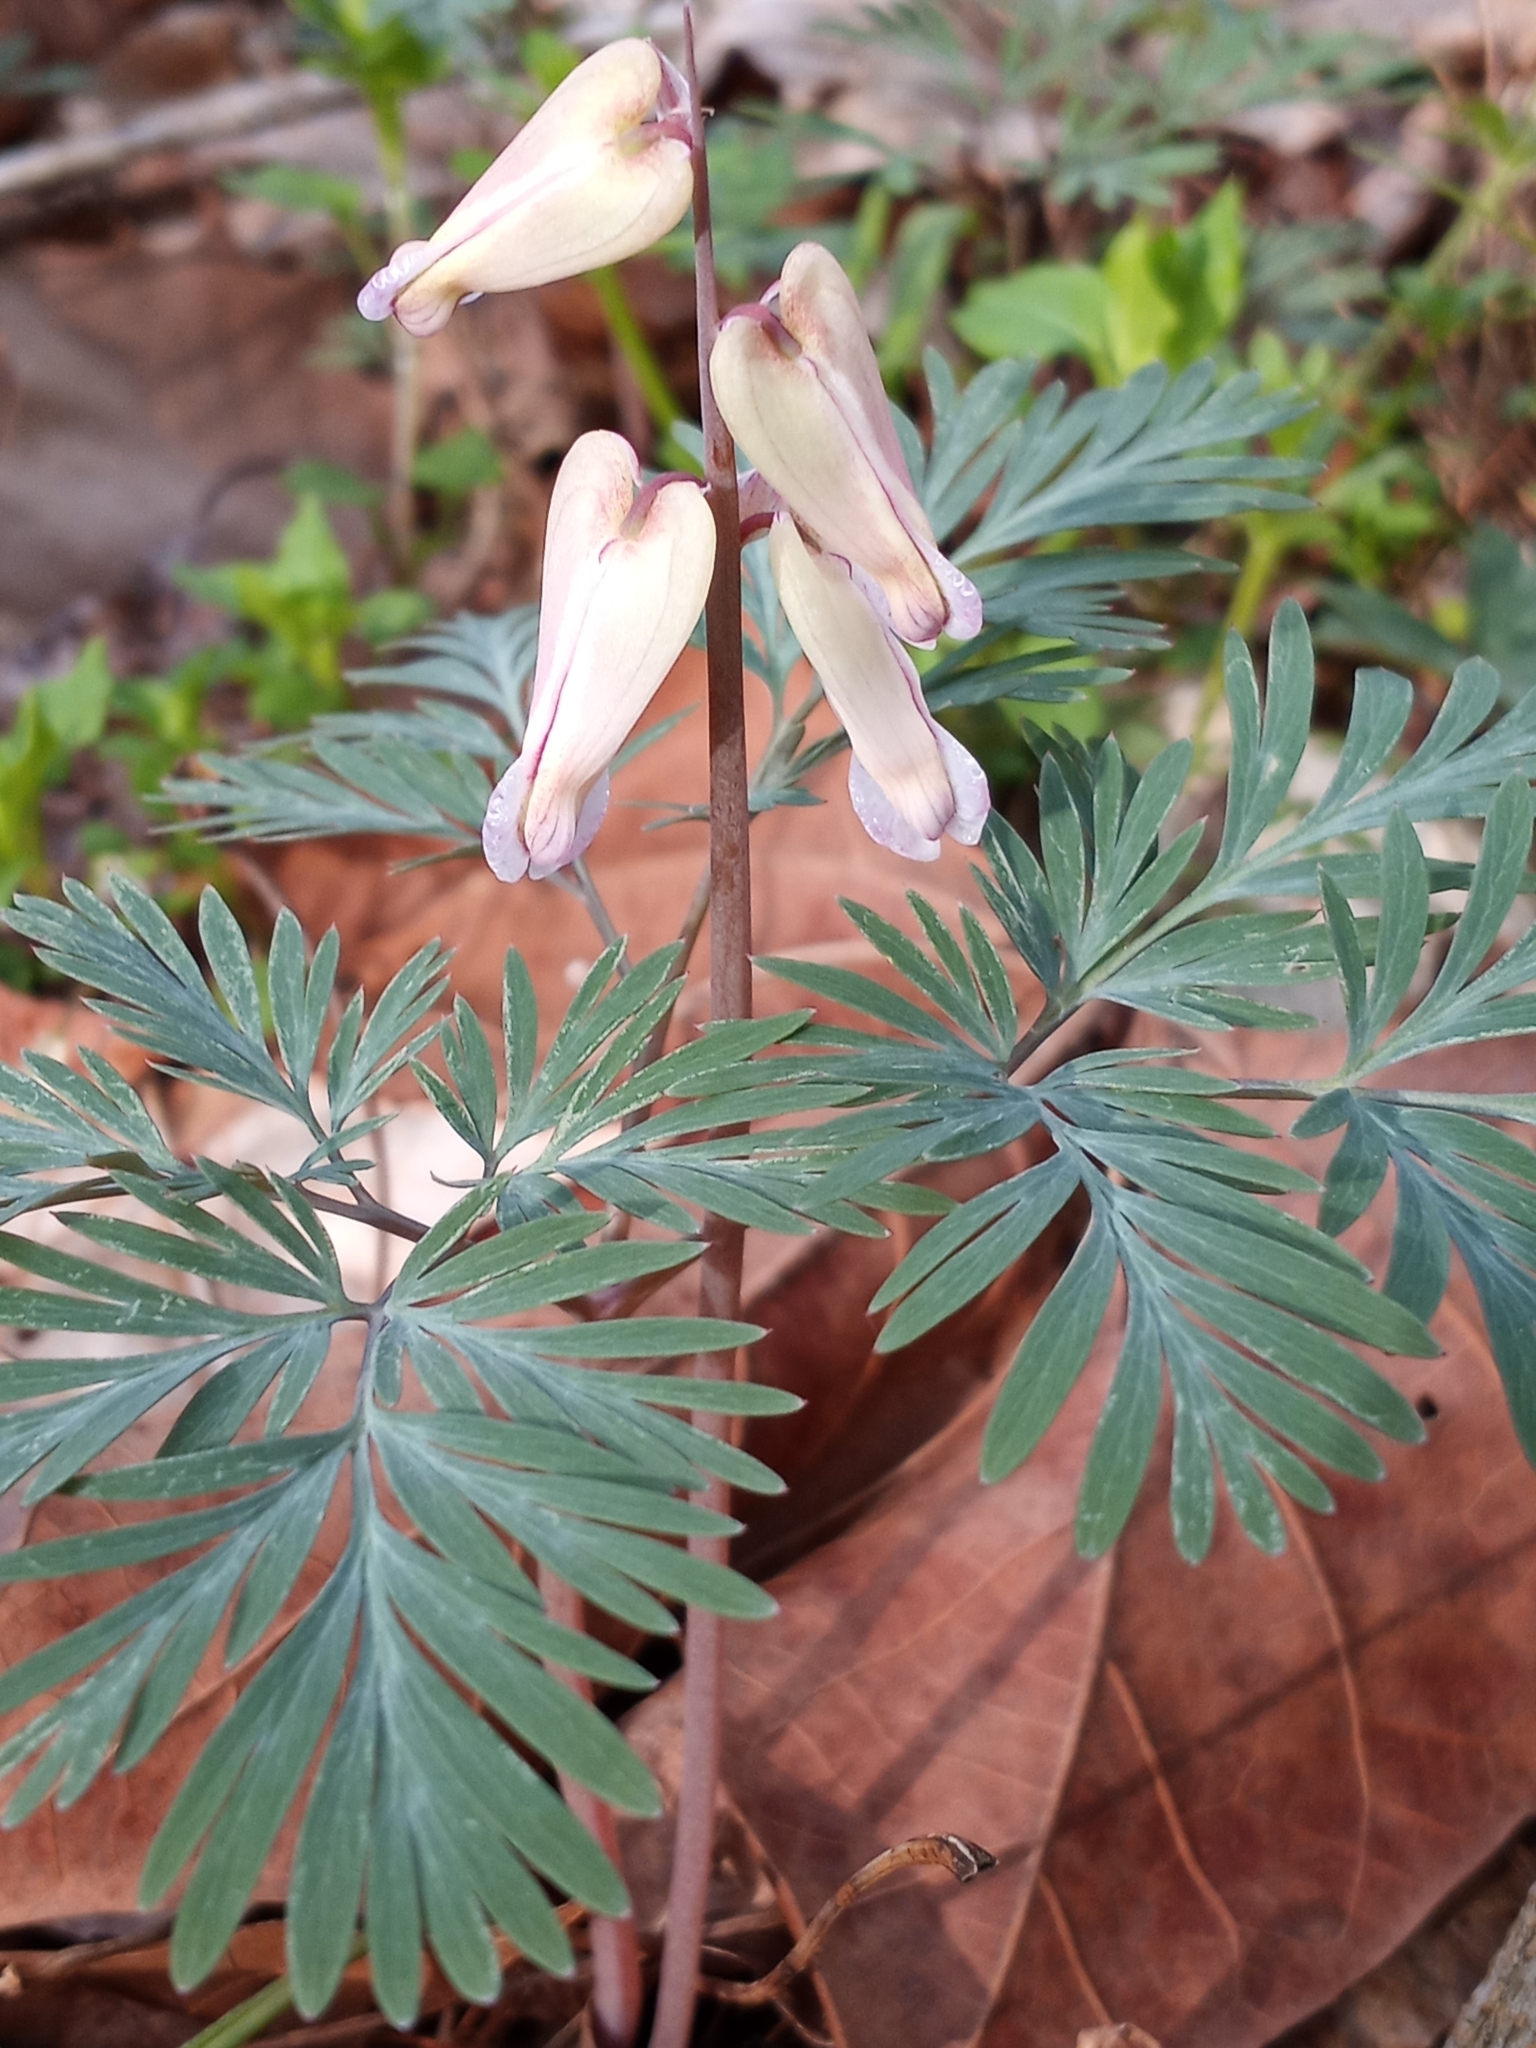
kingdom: Plantae
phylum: Tracheophyta
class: Magnoliopsida
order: Ranunculales
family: Papaveraceae
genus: Dicentra
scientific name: Dicentra canadensis
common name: Squirrel-corn
